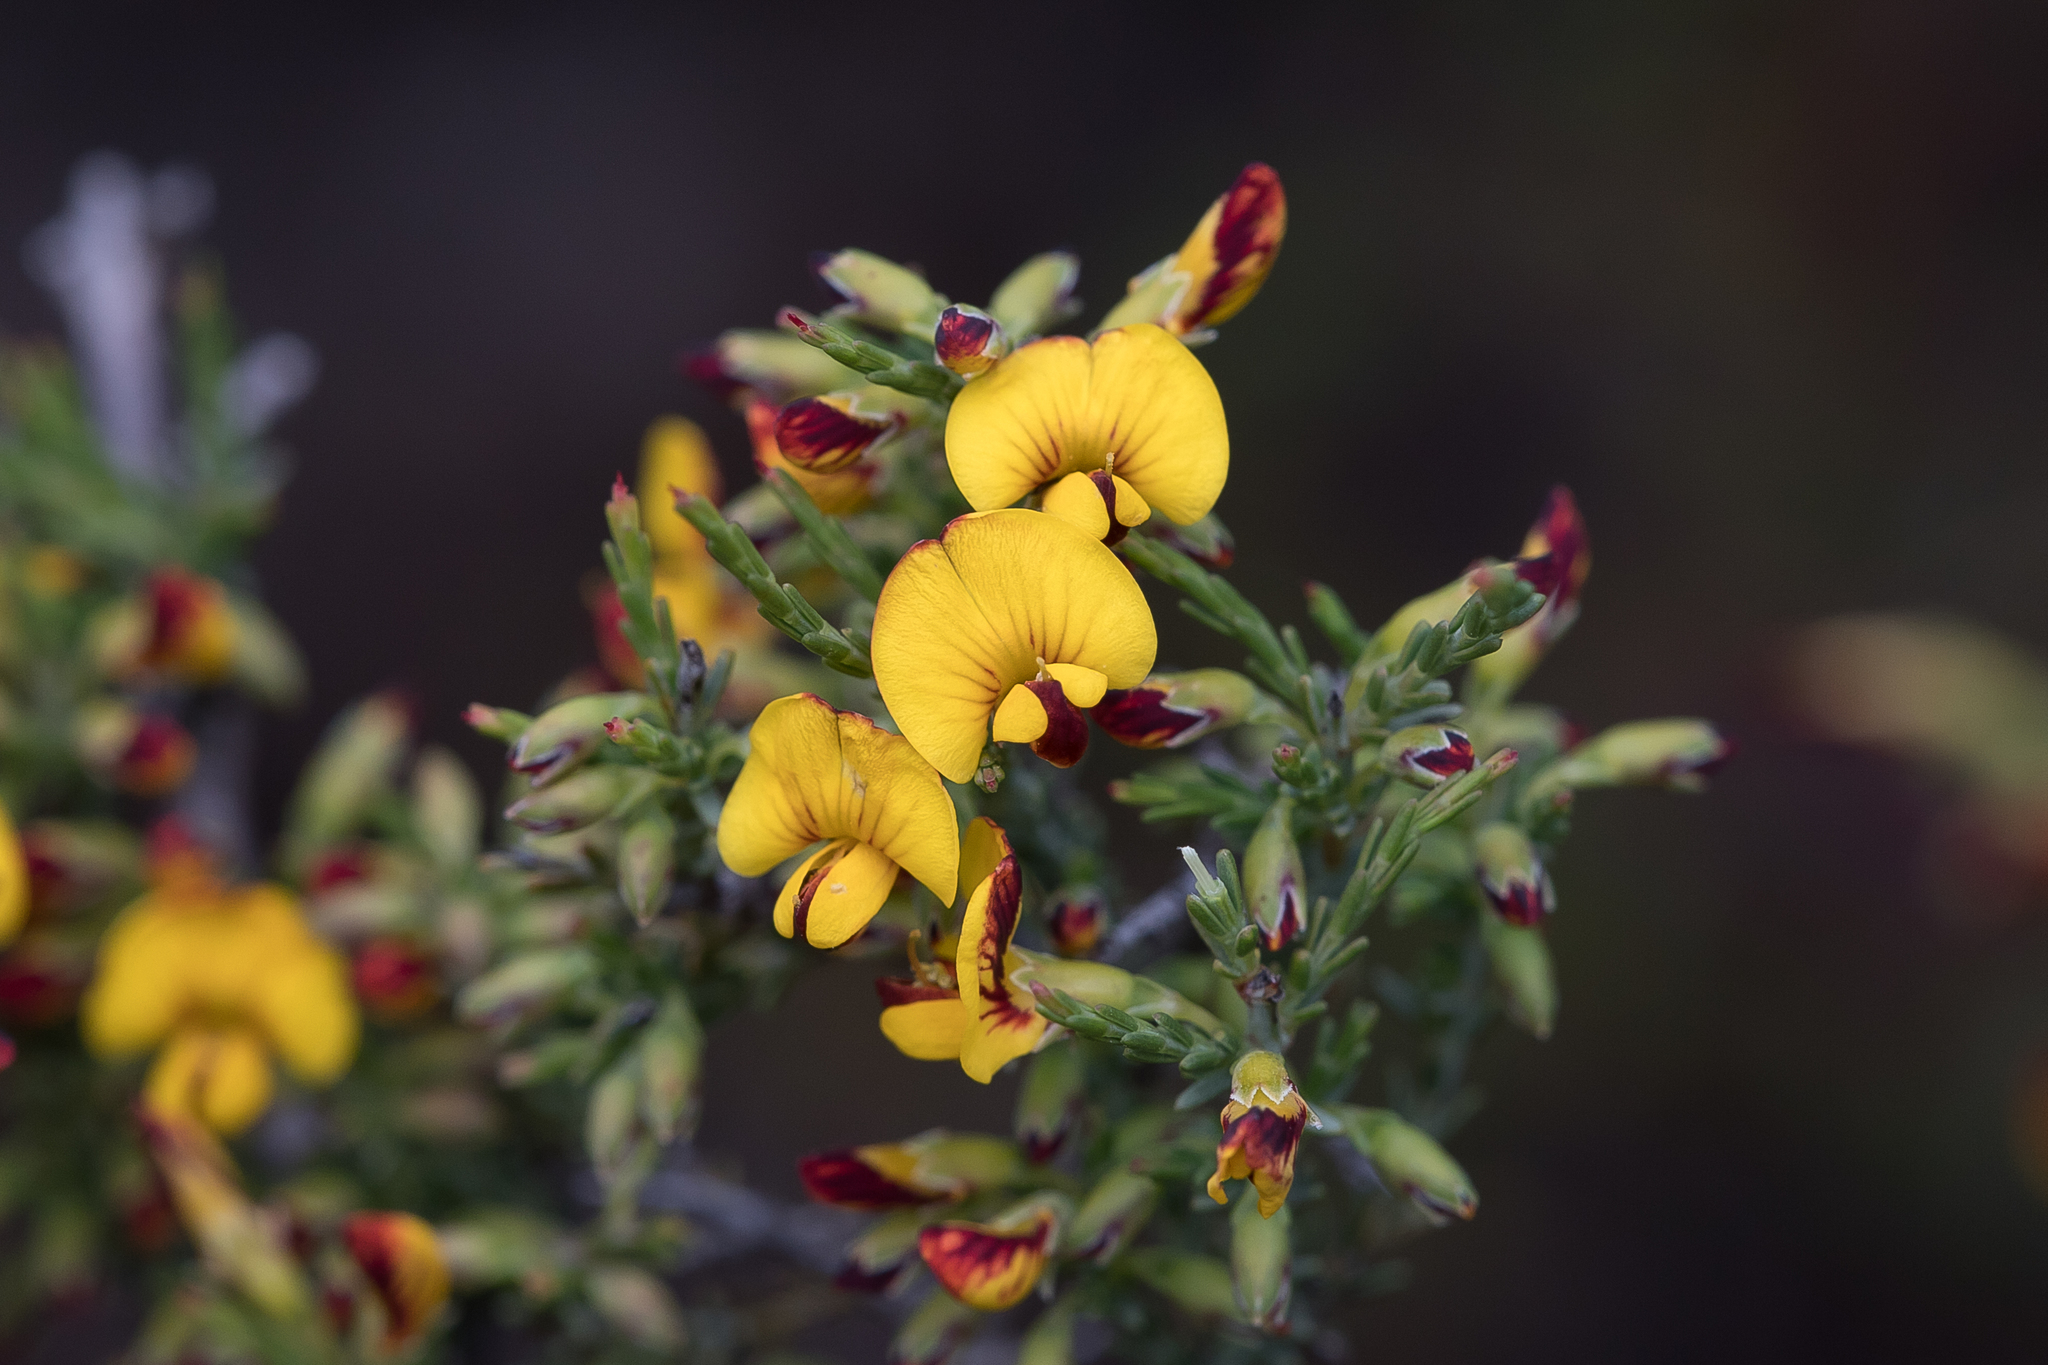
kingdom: Plantae
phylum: Tracheophyta
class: Magnoliopsida
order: Fabales
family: Fabaceae
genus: Eutaxia
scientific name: Eutaxia microphylla
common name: Mallee bush-pea
